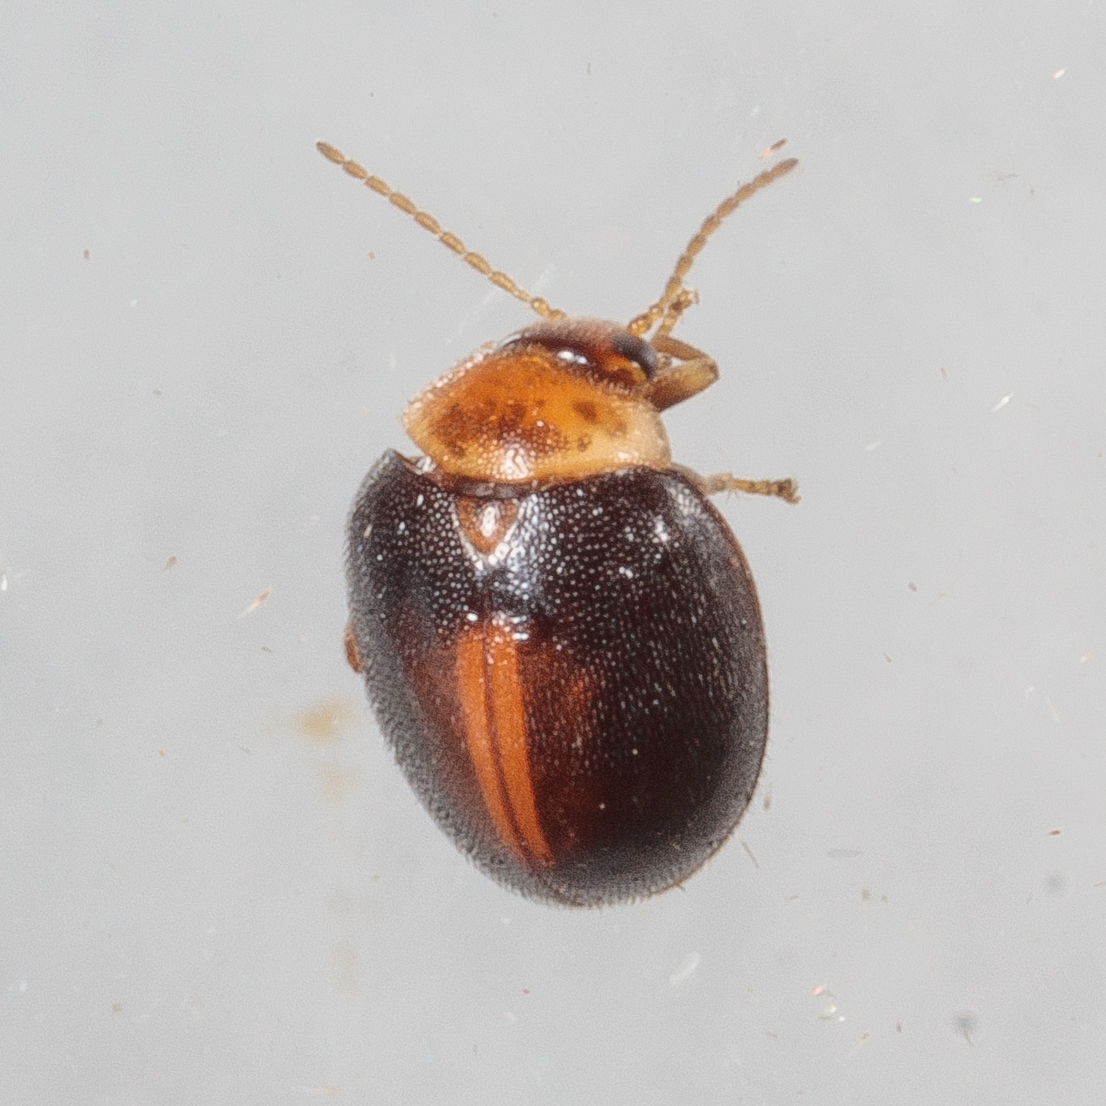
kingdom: Animalia
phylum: Arthropoda
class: Insecta
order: Coleoptera
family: Scirtidae
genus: Scirtes
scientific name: Scirtes orbiculatus
